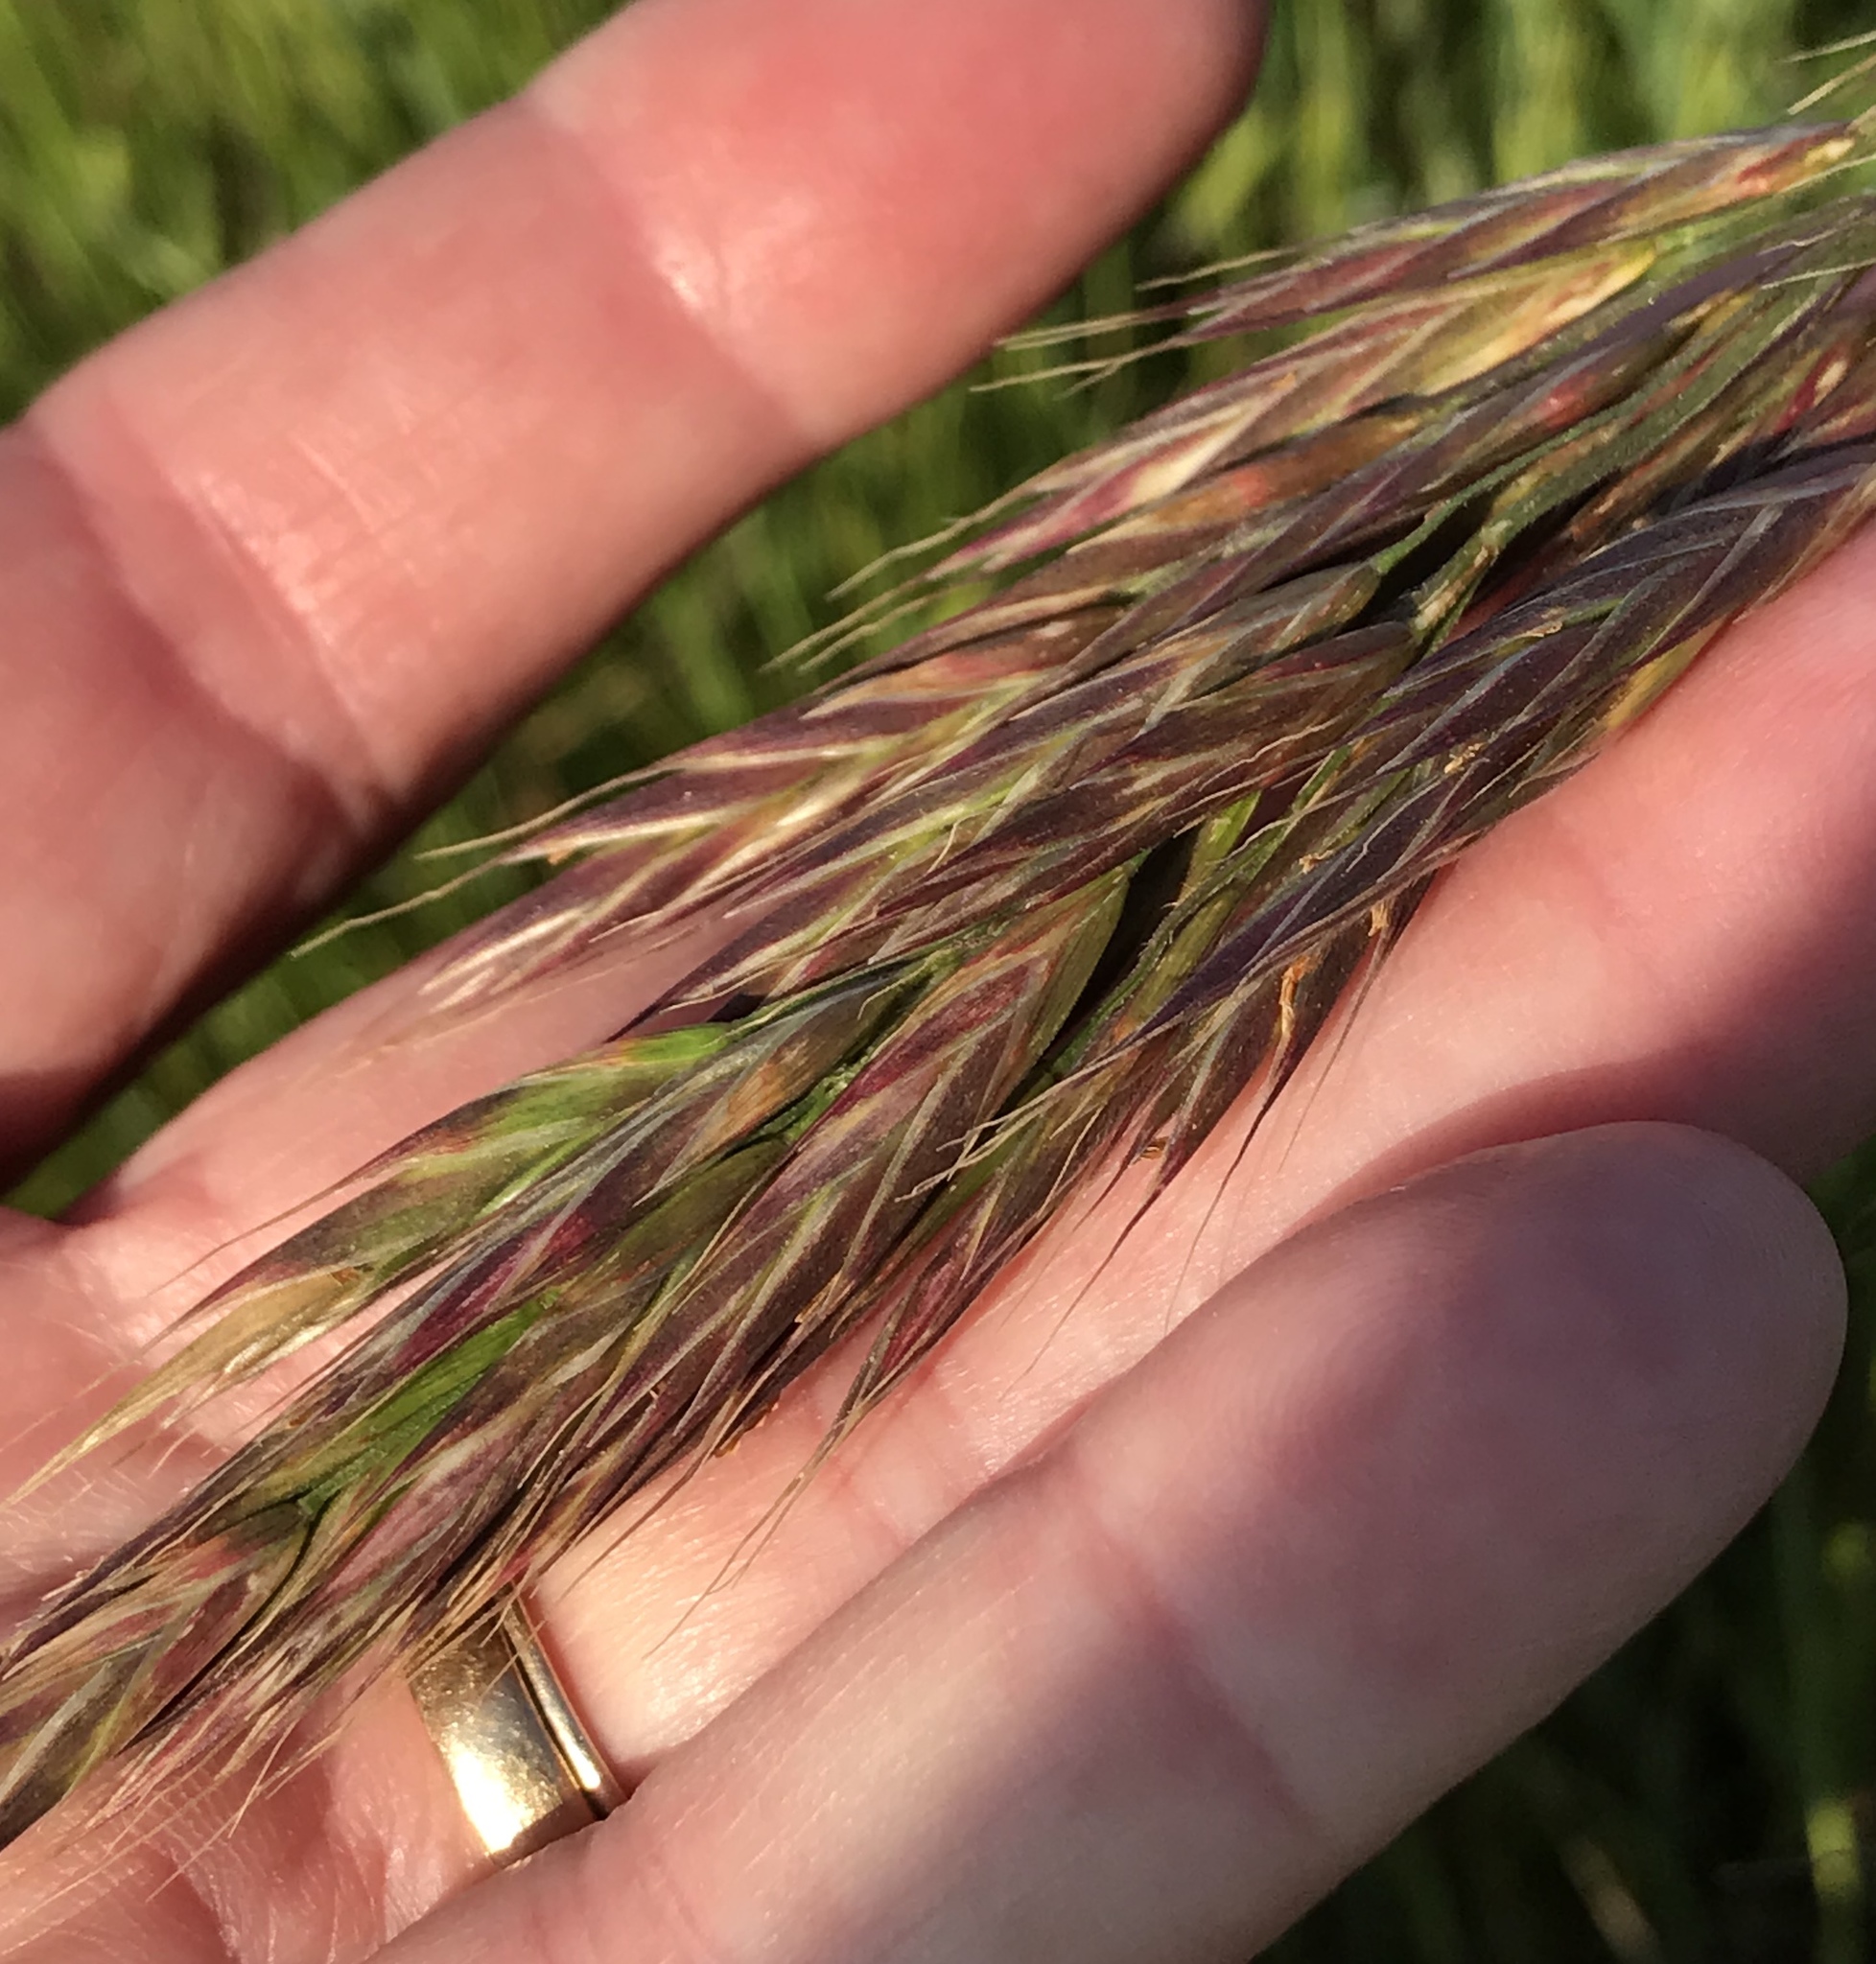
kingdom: Plantae
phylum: Tracheophyta
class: Liliopsida
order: Poales
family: Poaceae
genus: Bromus
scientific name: Bromus carinatus
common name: Mountain brome
